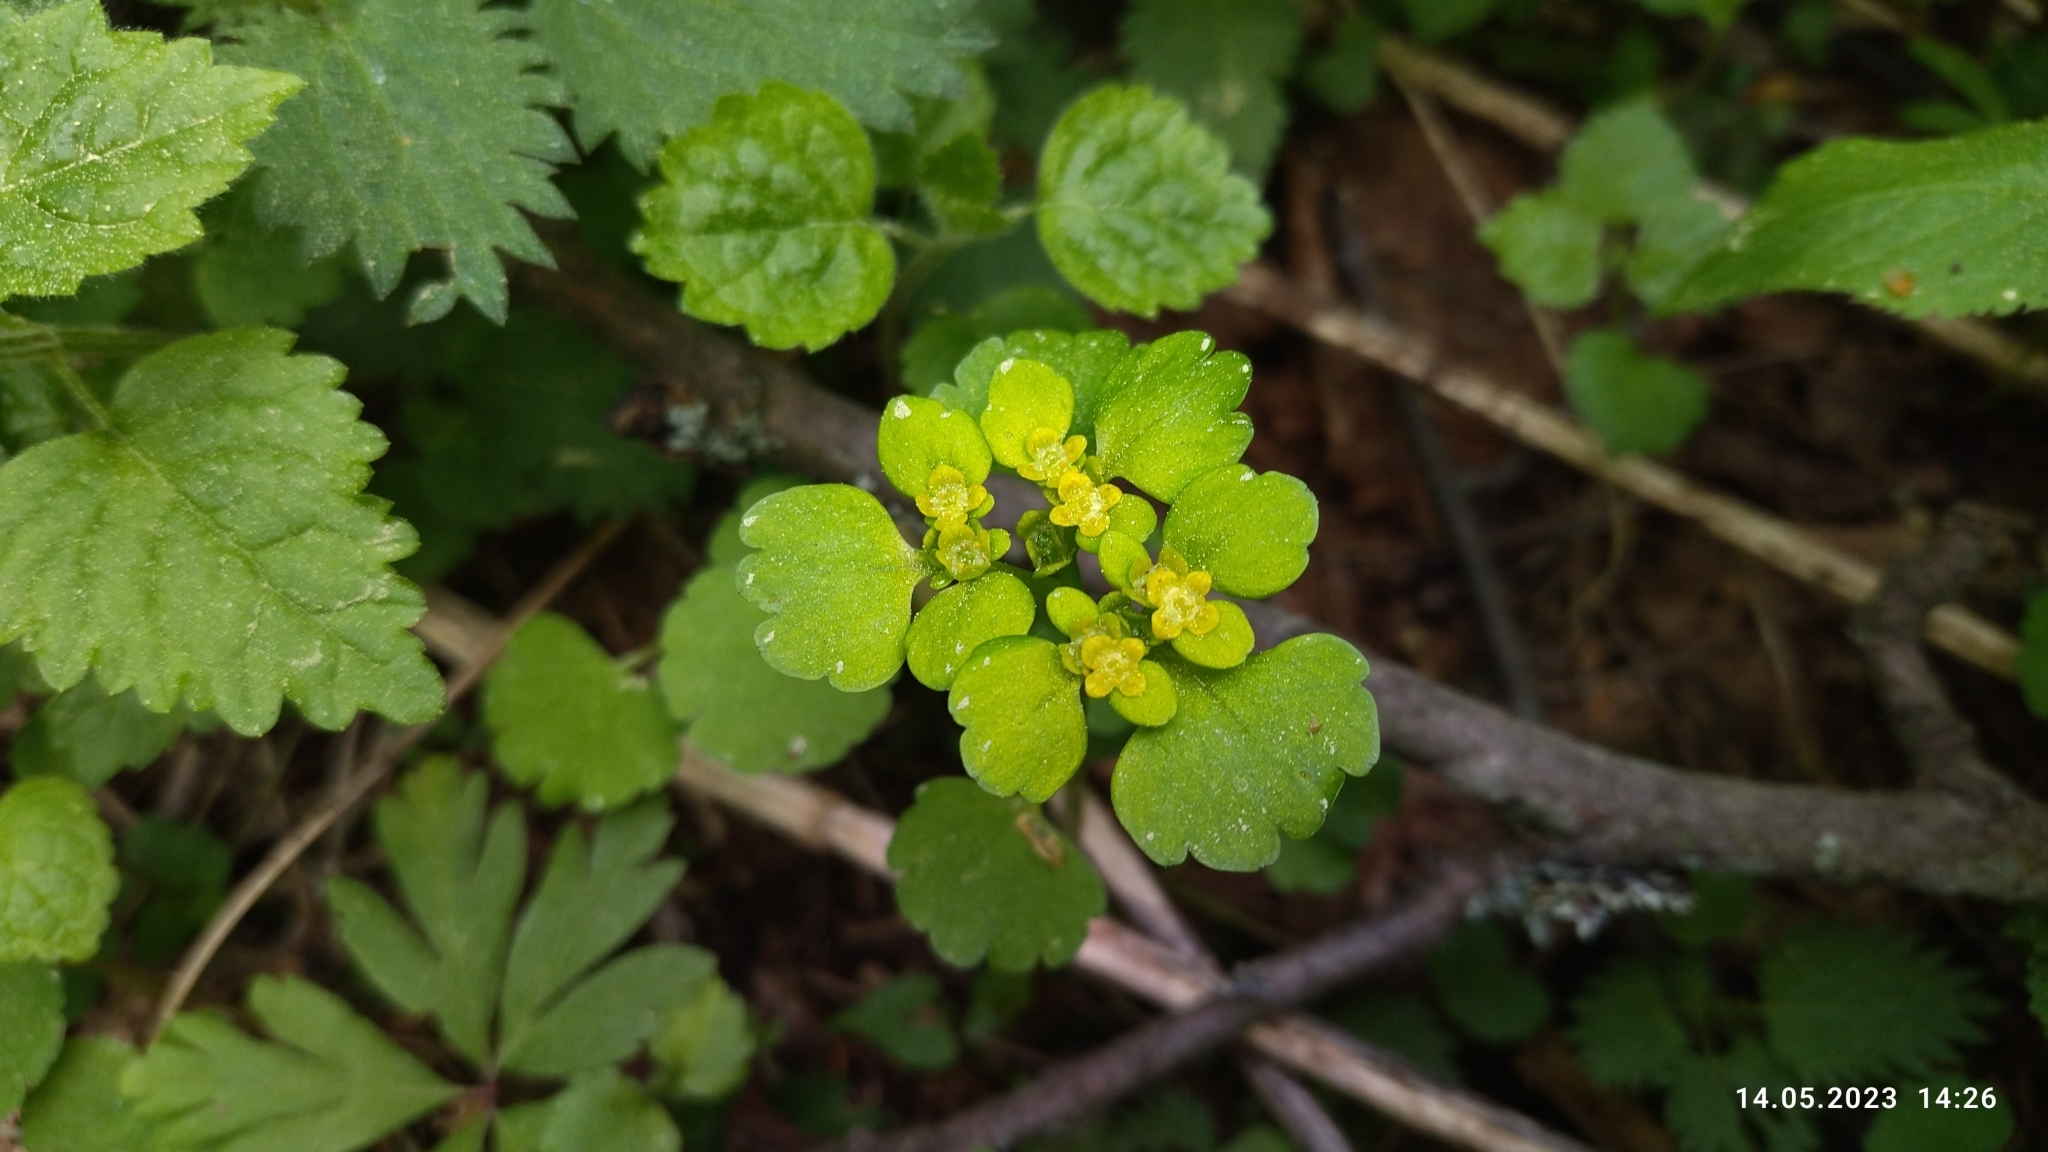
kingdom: Plantae
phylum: Tracheophyta
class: Magnoliopsida
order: Saxifragales
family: Saxifragaceae
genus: Chrysosplenium
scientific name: Chrysosplenium alternifolium
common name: Alternate-leaved golden-saxifrage
